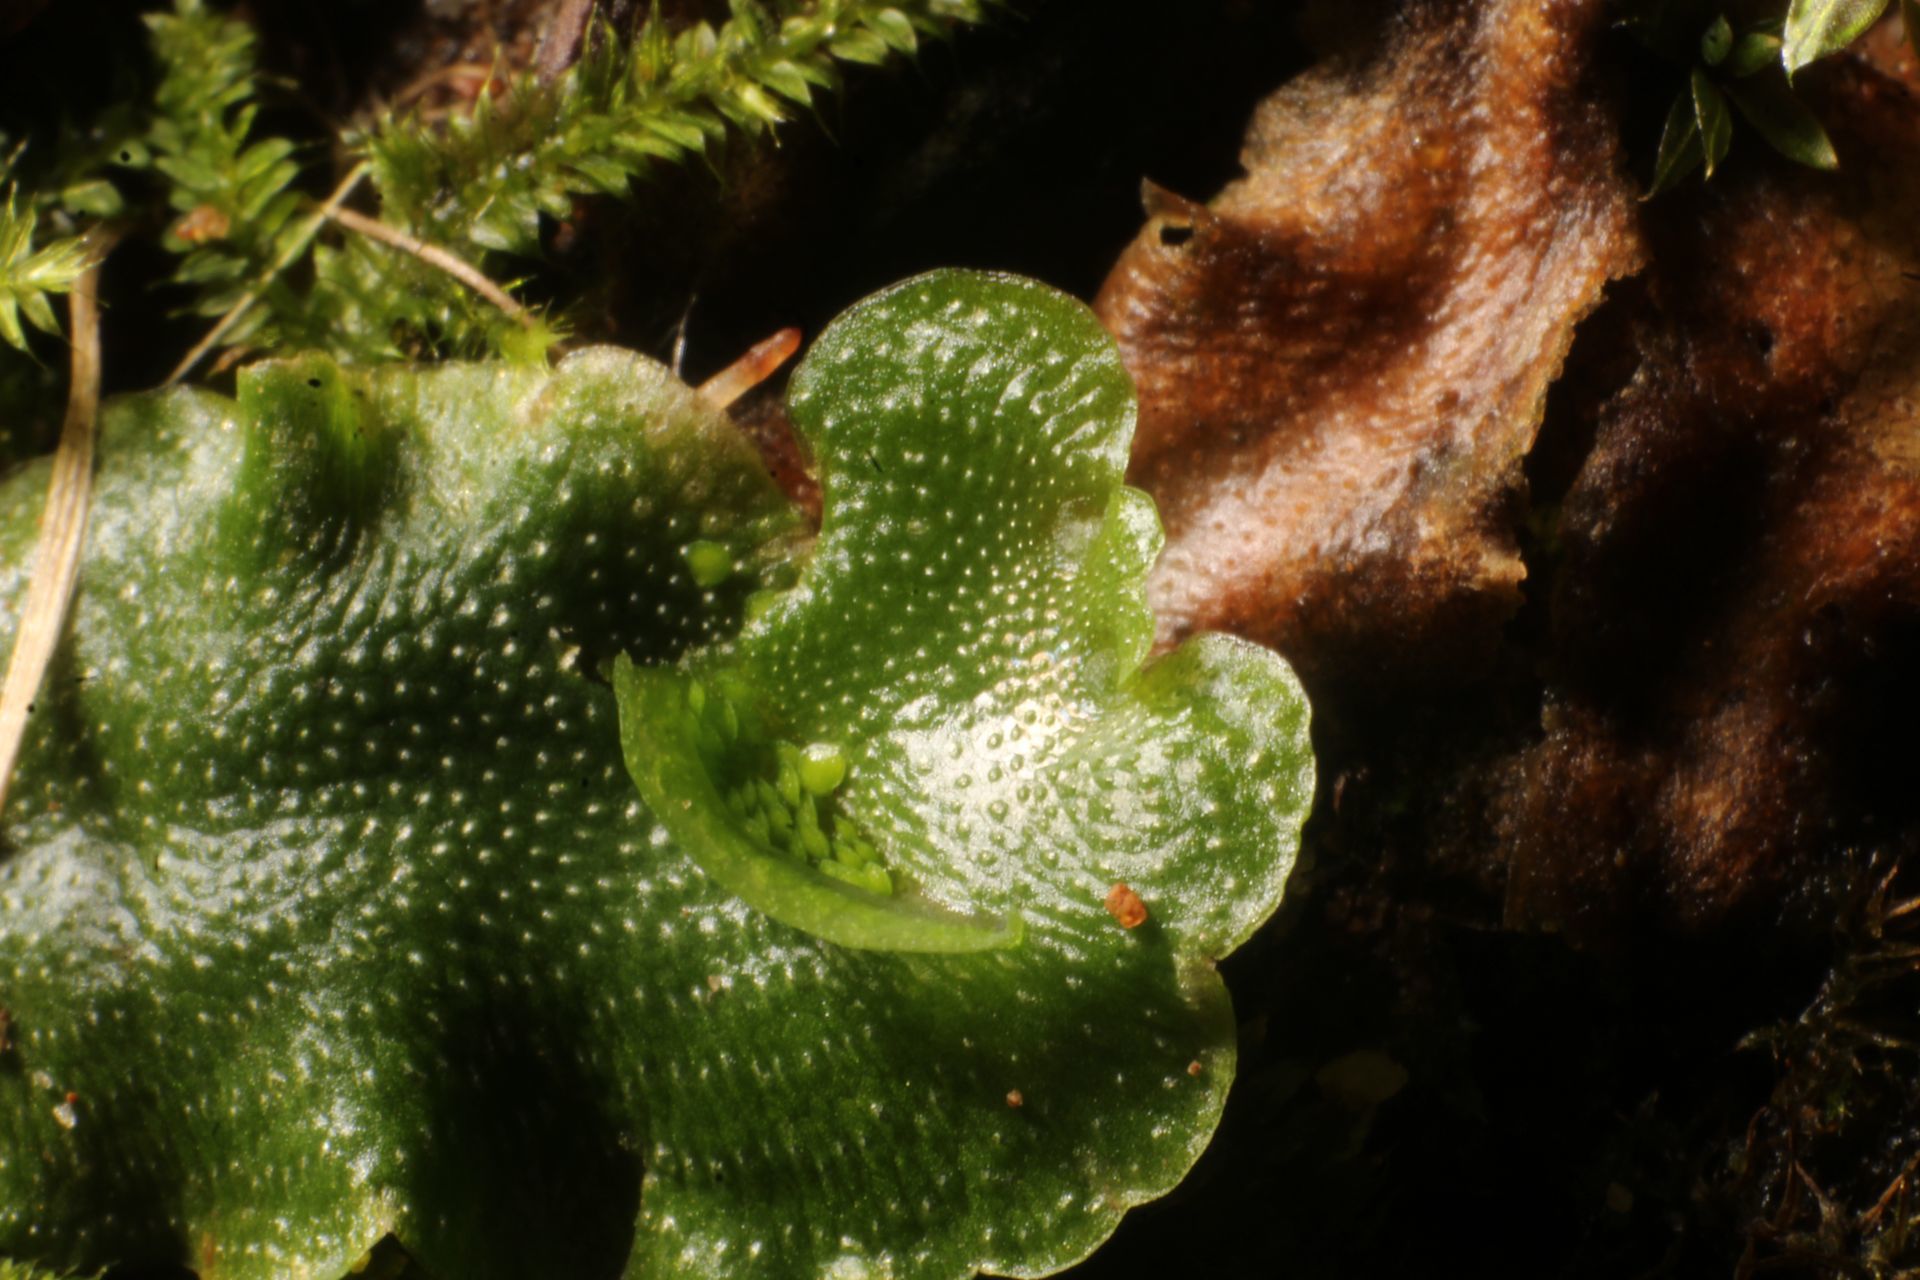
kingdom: Plantae
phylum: Marchantiophyta
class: Marchantiopsida
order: Lunulariales
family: Lunulariaceae
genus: Lunularia
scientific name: Lunularia cruciata
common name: Crescent-cup liverwort
